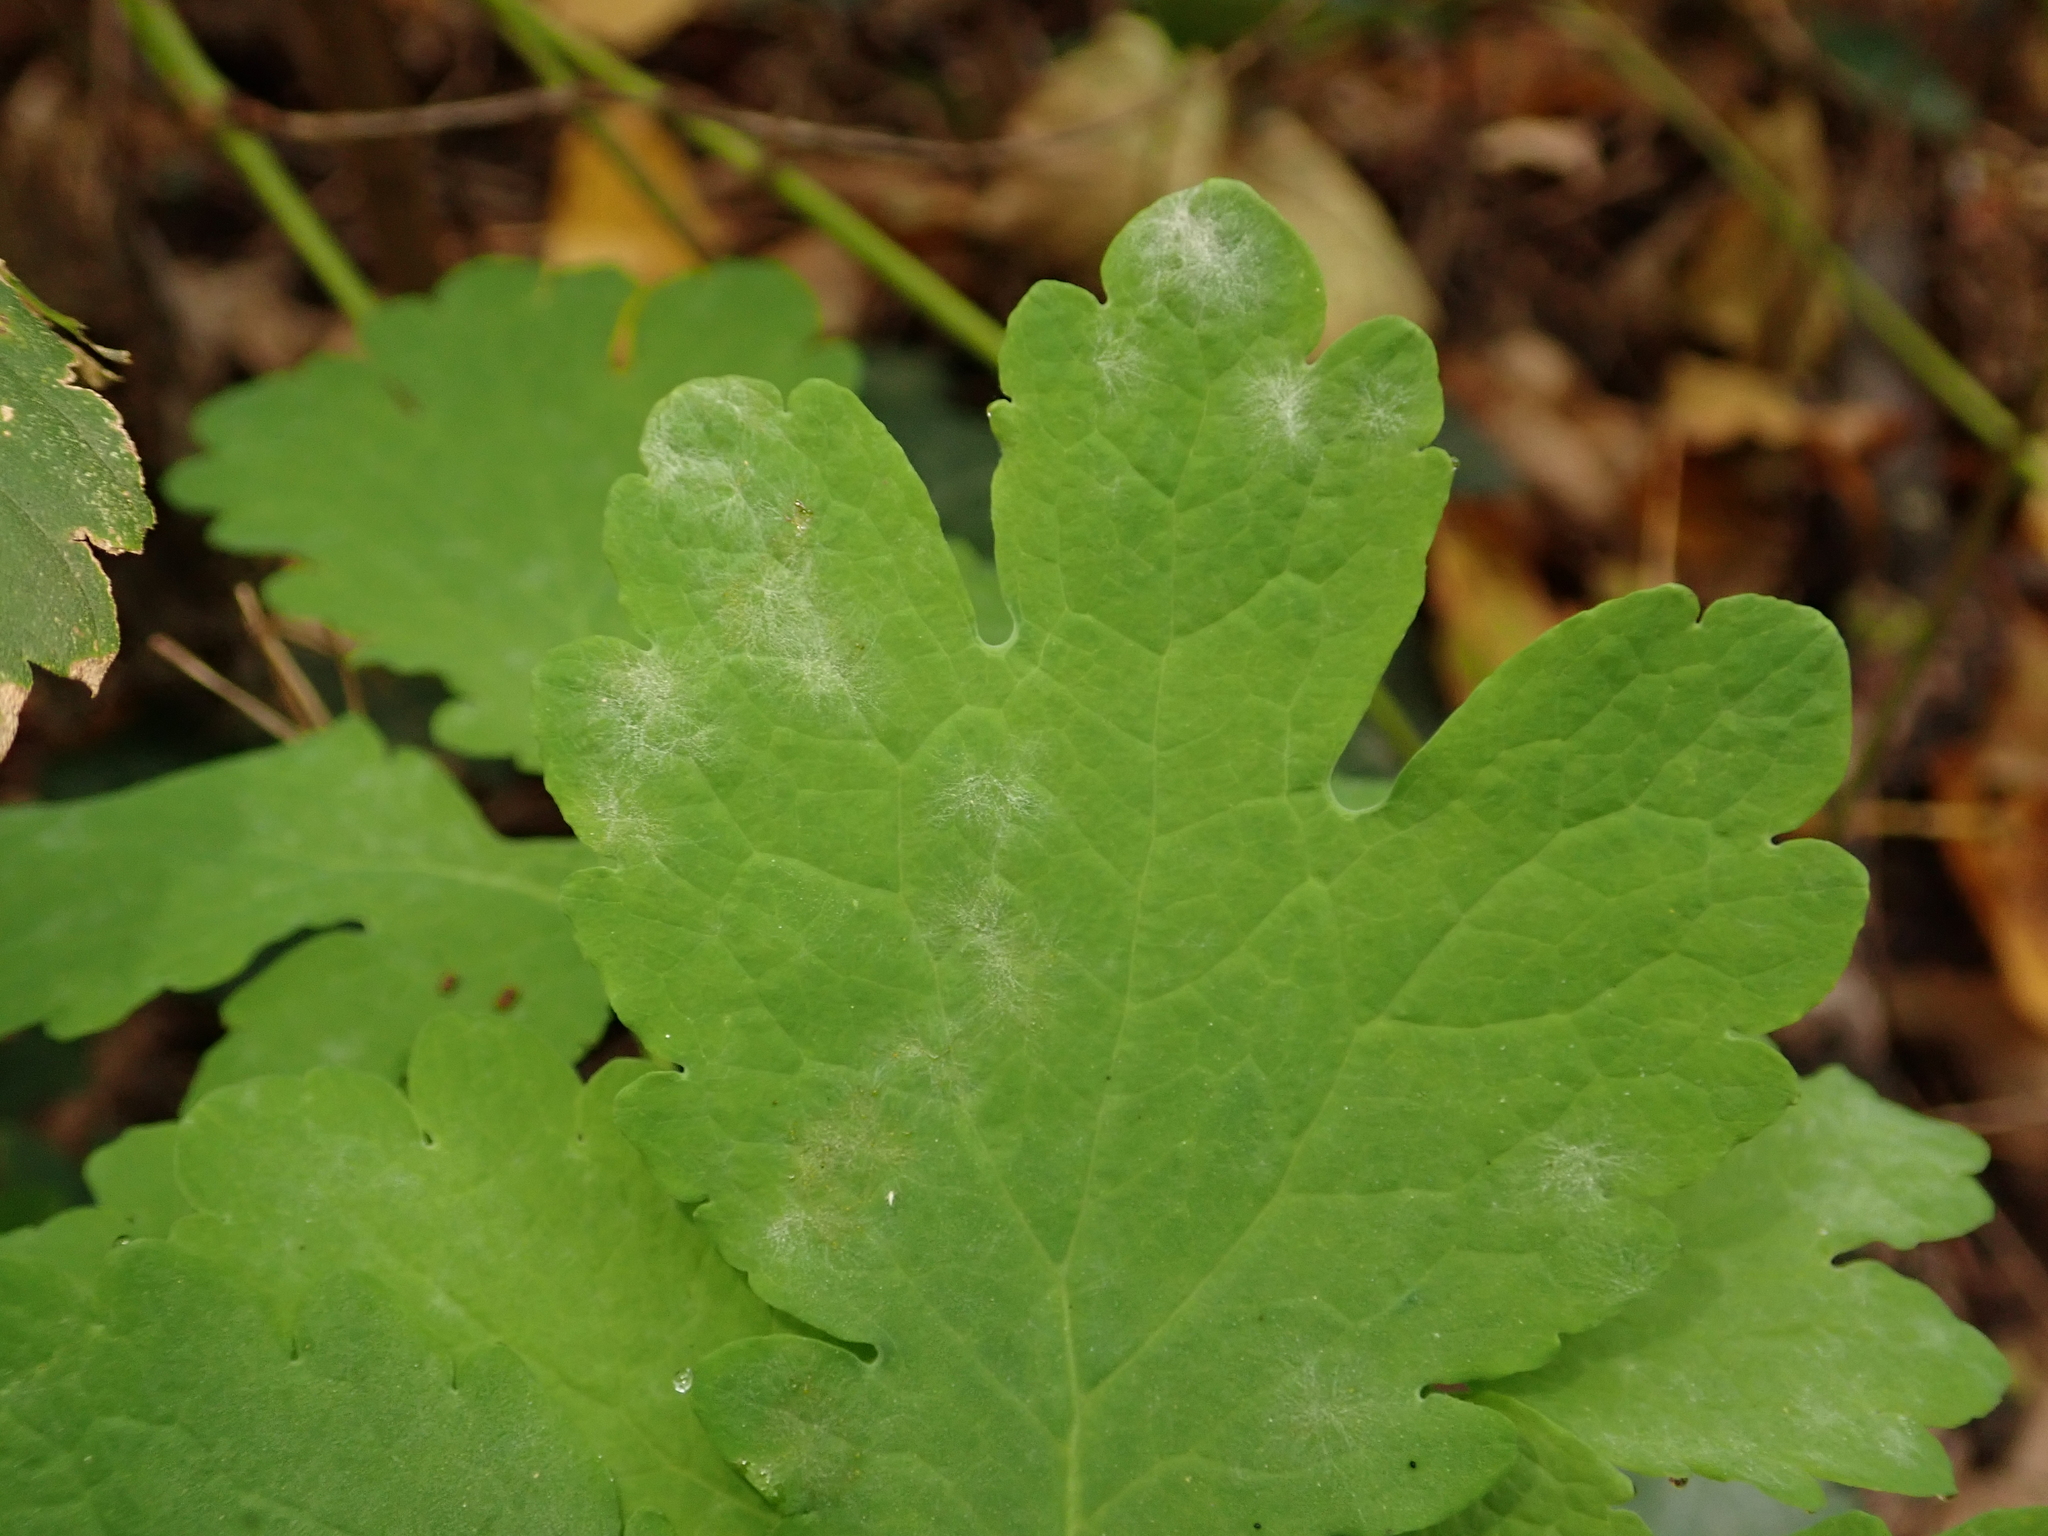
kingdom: Fungi
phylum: Ascomycota
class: Leotiomycetes
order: Helotiales
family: Erysiphaceae
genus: Erysiphe
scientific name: Erysiphe macleayae
